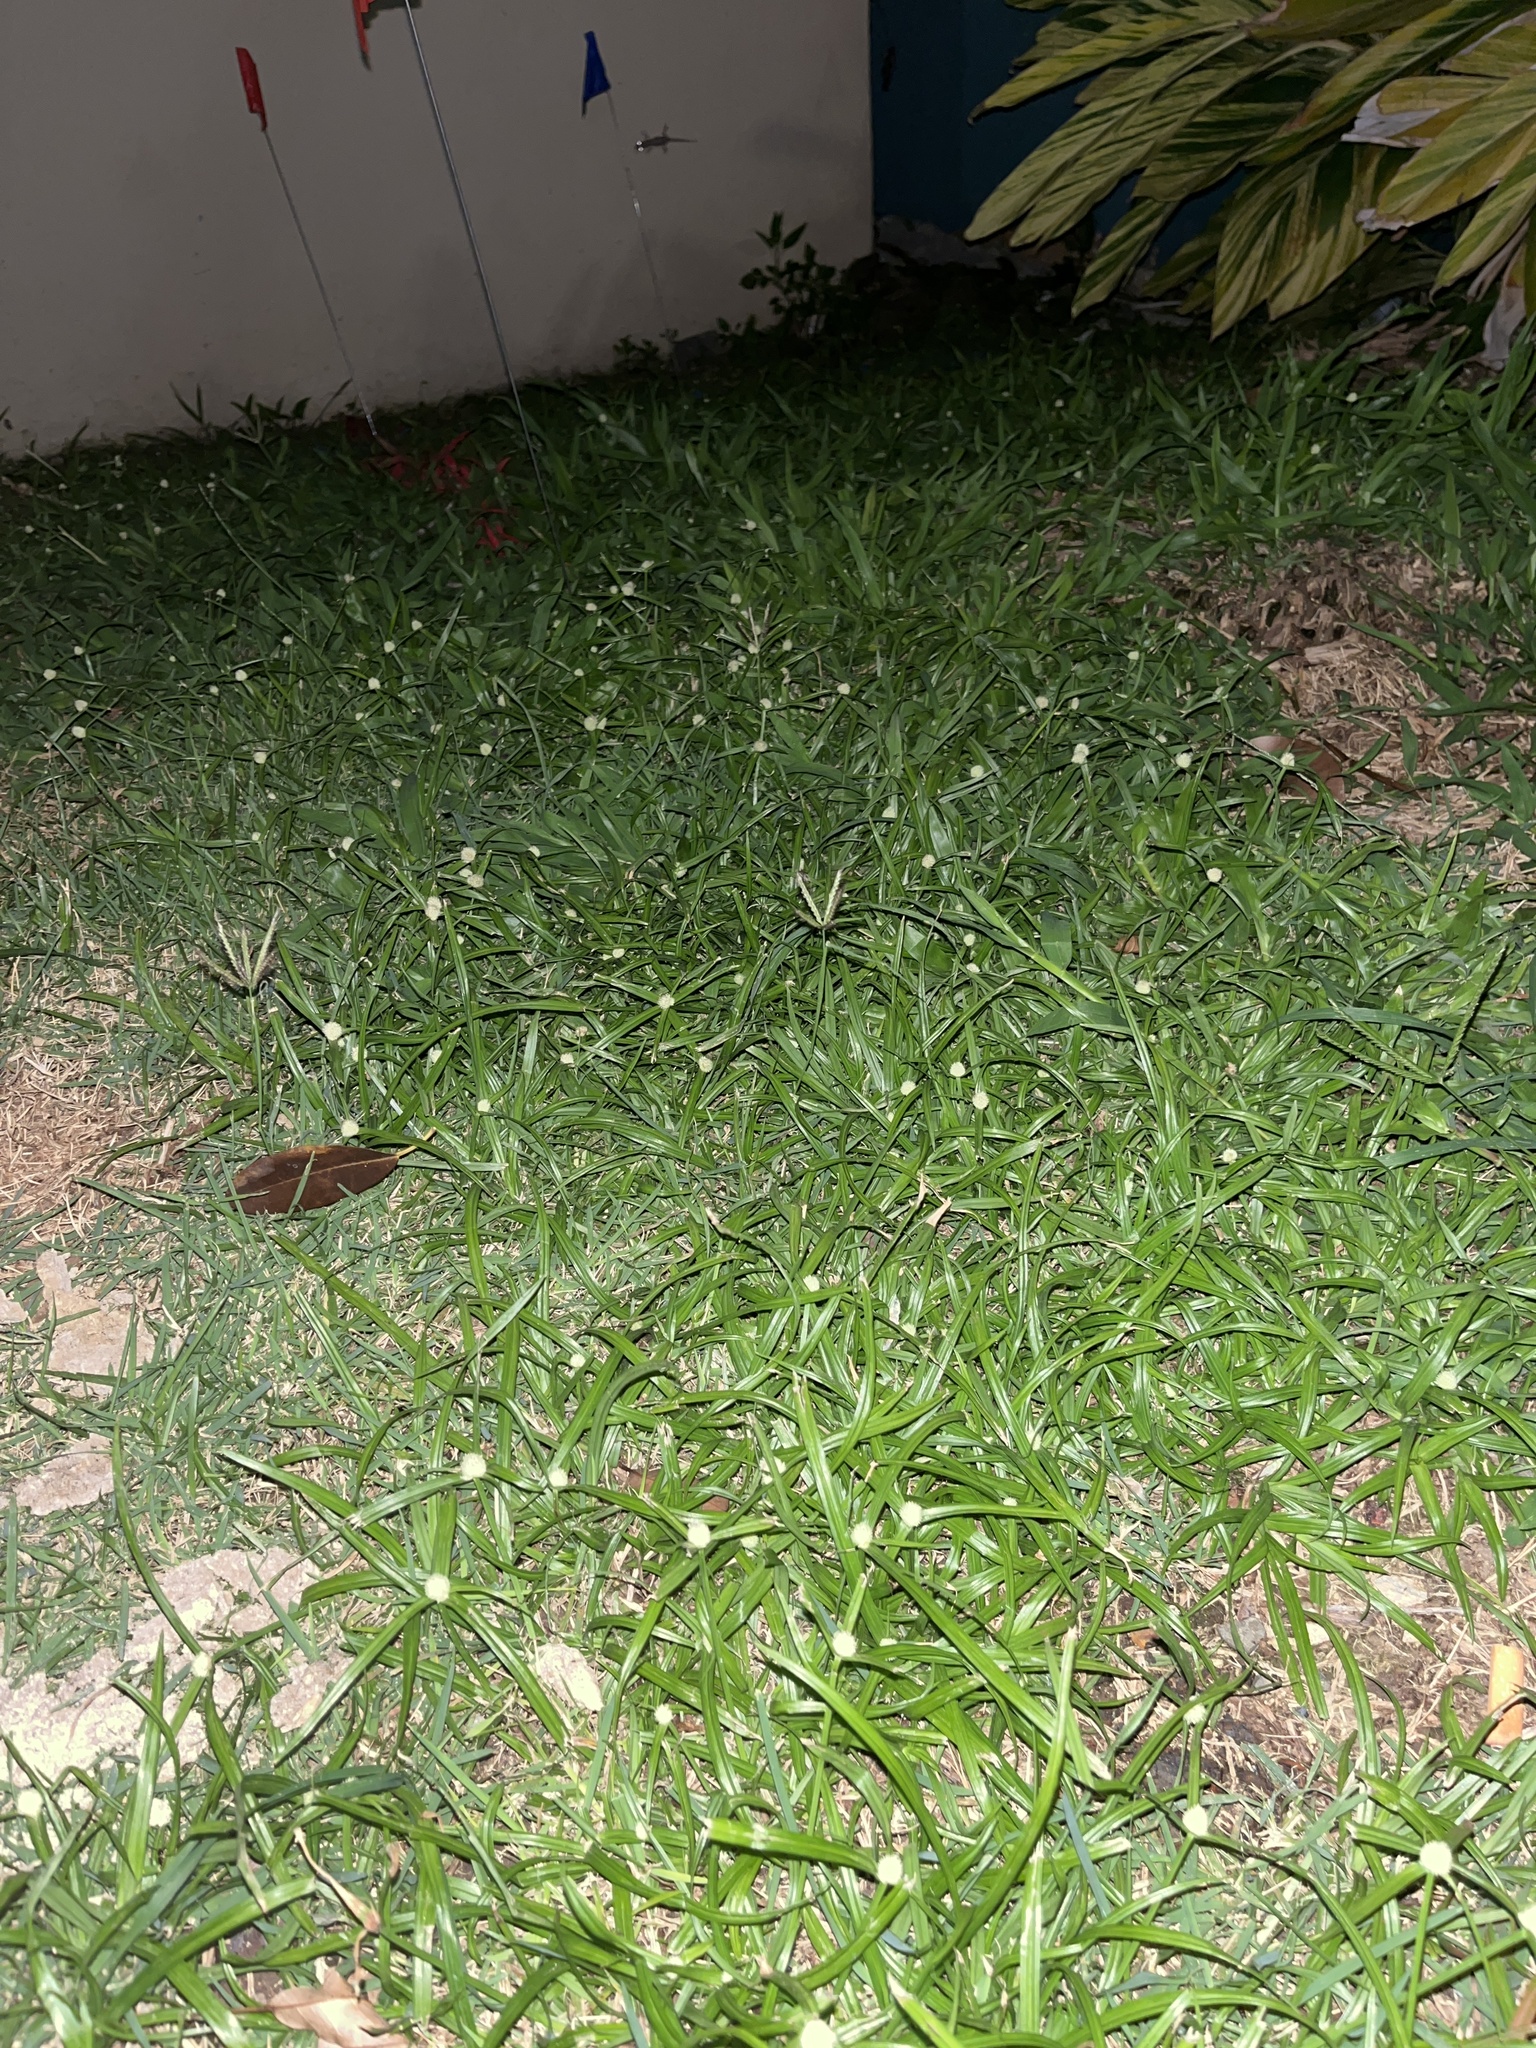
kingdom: Plantae
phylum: Tracheophyta
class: Liliopsida
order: Poales
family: Cyperaceae
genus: Cyperus
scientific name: Cyperus mindorensis
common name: Flatsedge
